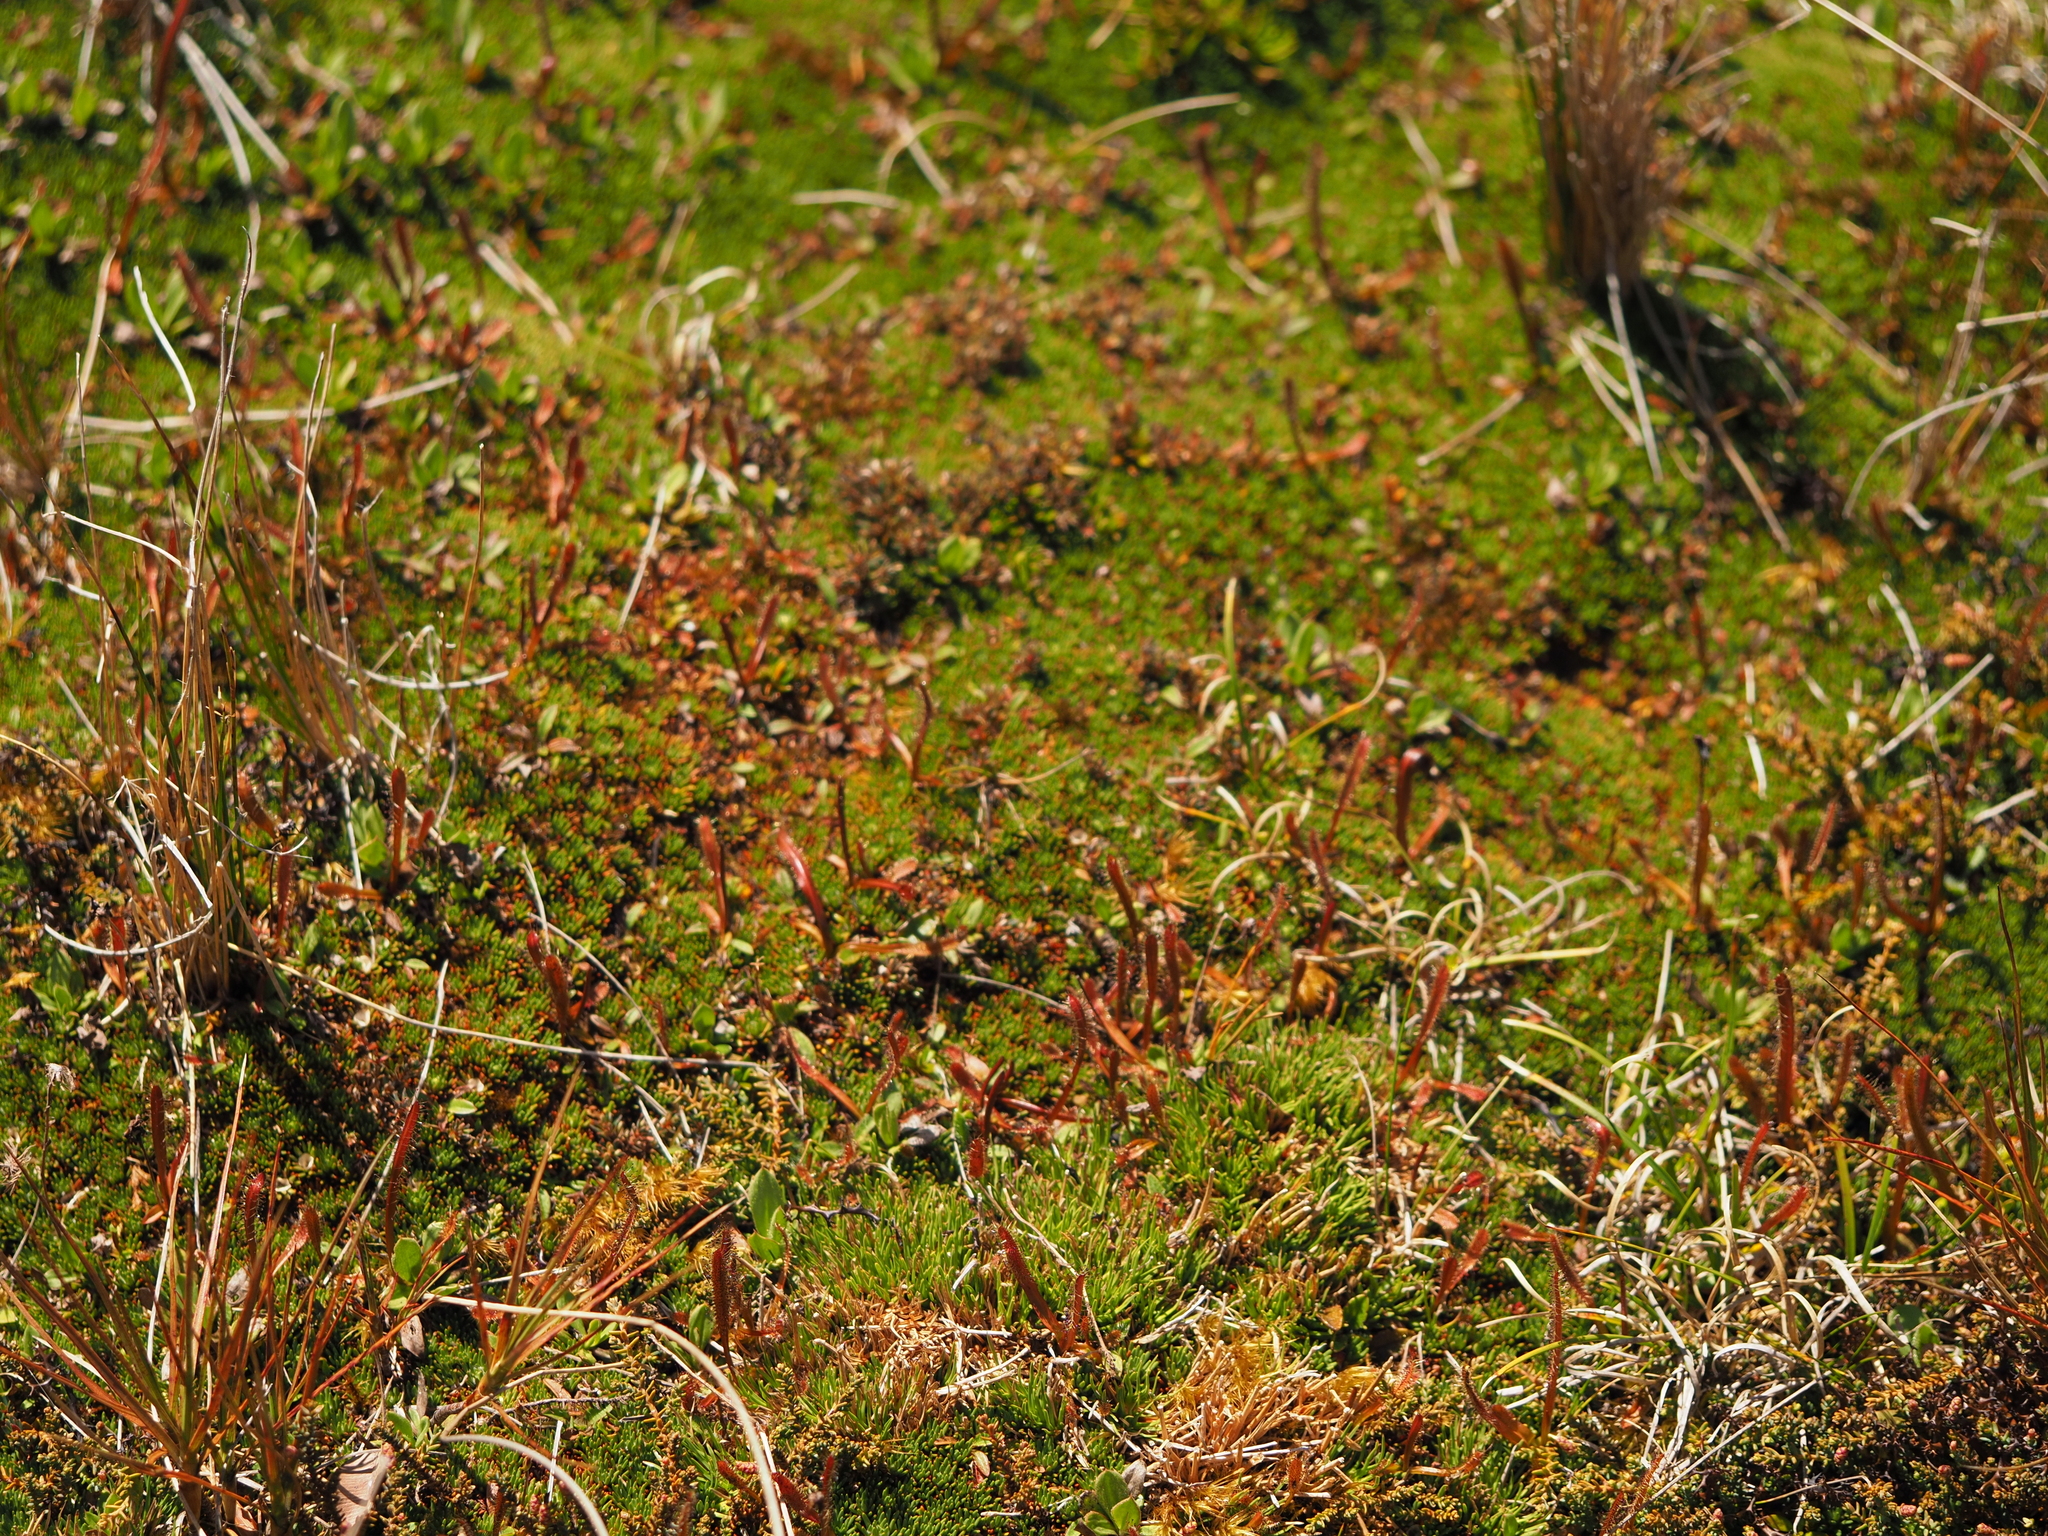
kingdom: Plantae
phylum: Tracheophyta
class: Magnoliopsida
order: Asterales
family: Stylidiaceae
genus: Donatia
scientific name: Donatia novae-zelandiae
